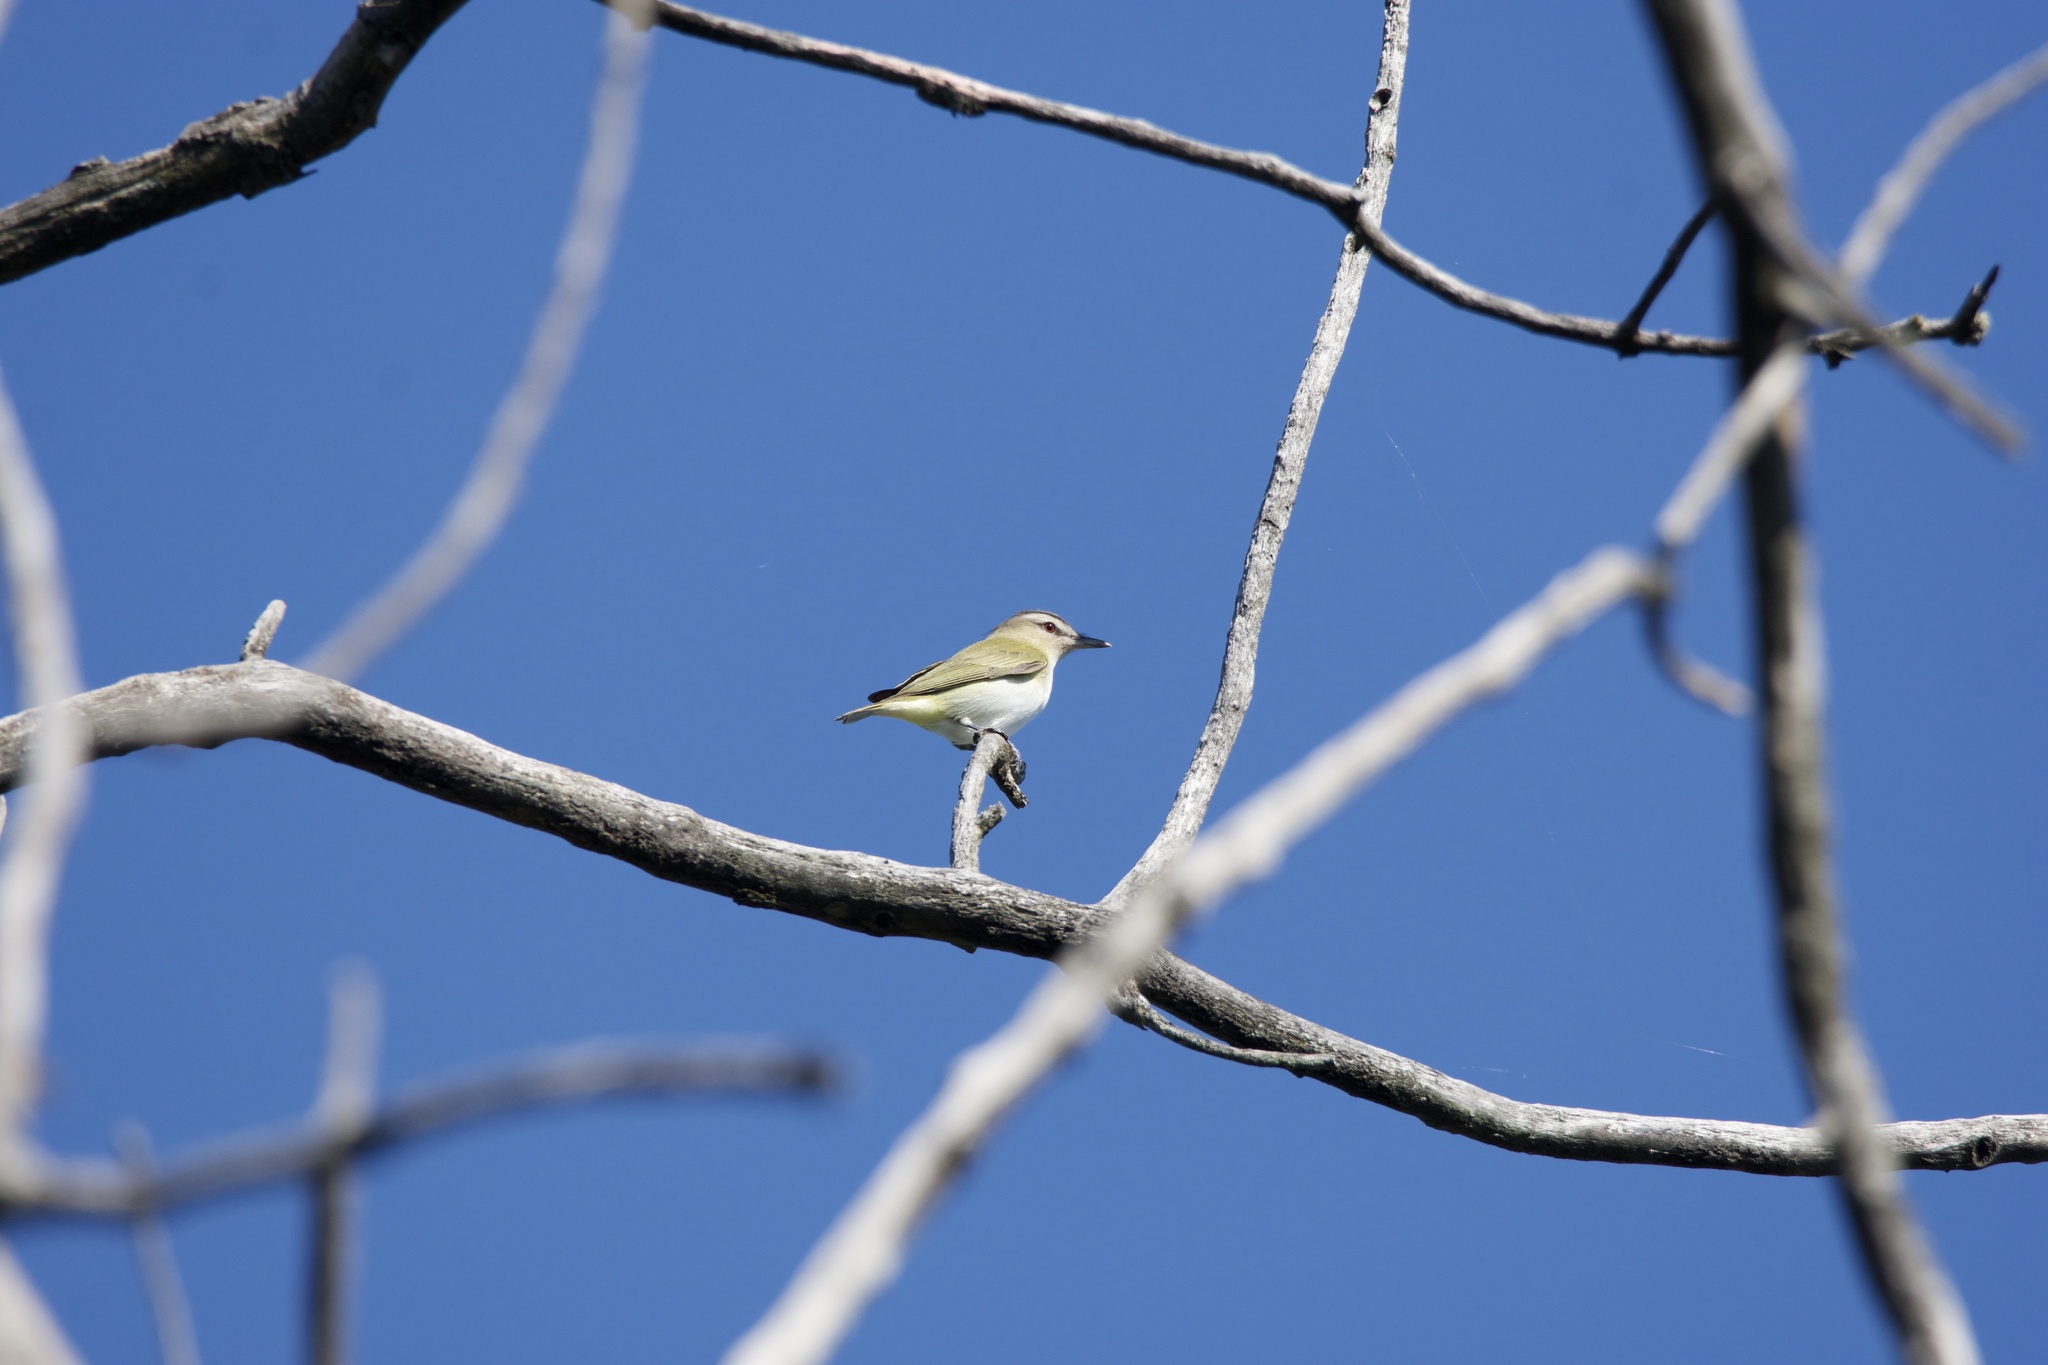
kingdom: Animalia
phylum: Chordata
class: Aves
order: Passeriformes
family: Vireonidae
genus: Vireo
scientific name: Vireo olivaceus
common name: Red-eyed vireo
